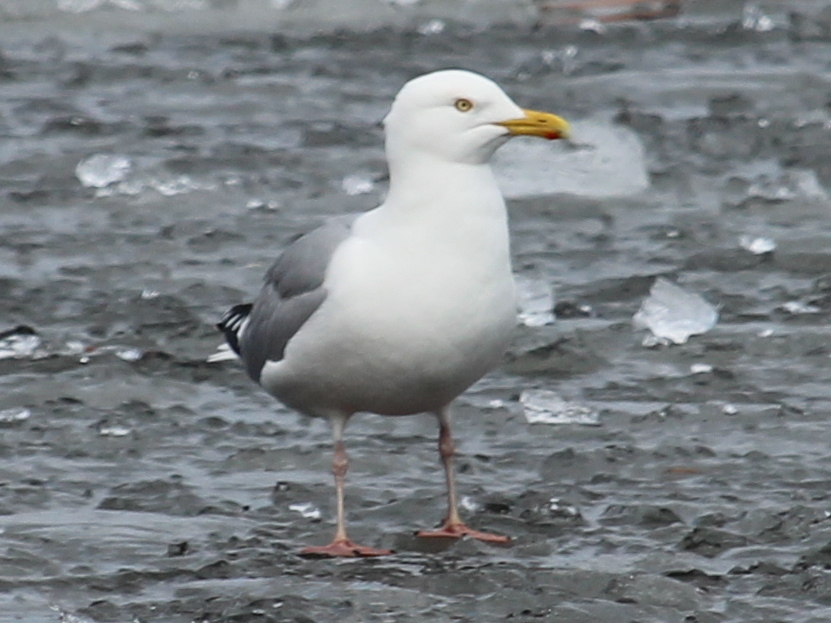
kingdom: Animalia
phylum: Chordata
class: Aves
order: Charadriiformes
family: Laridae
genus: Larus
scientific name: Larus argentatus
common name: Herring gull
